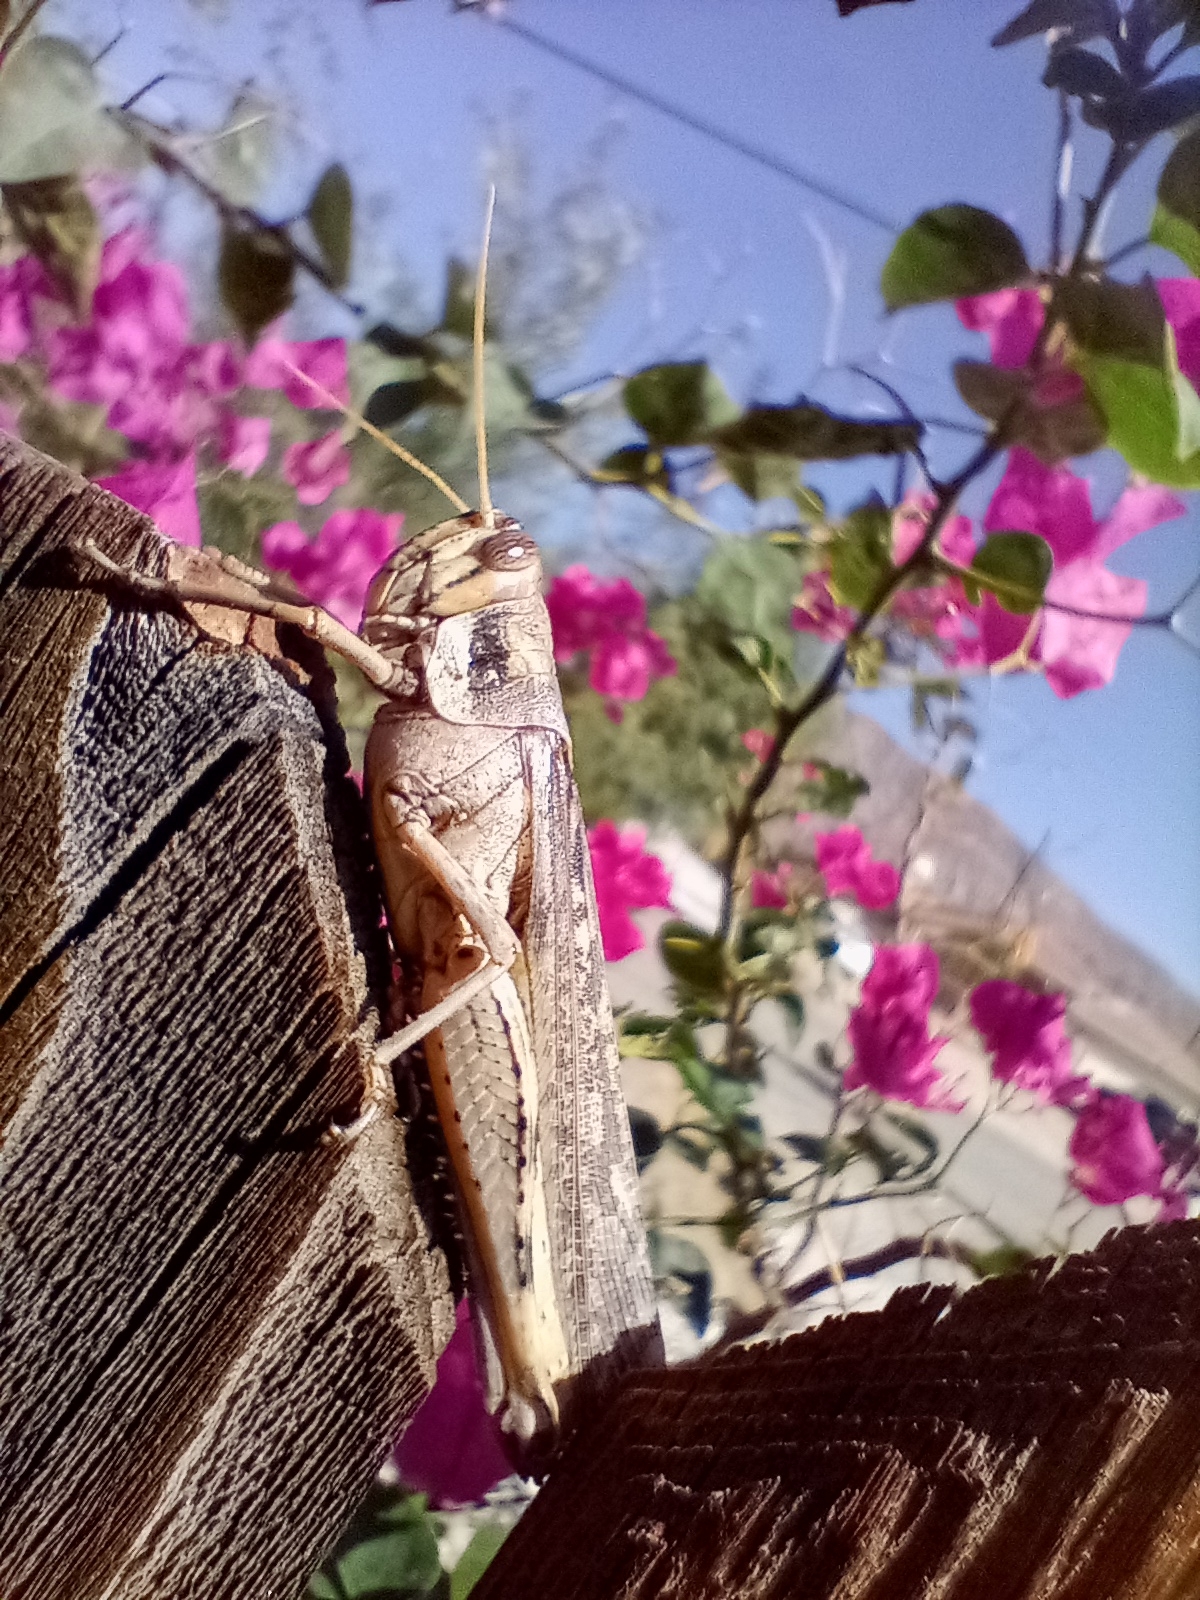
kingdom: Animalia
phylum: Arthropoda
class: Insecta
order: Orthoptera
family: Acrididae
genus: Schistocerca
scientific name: Schistocerca nitens
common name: Vagrant grasshopper
